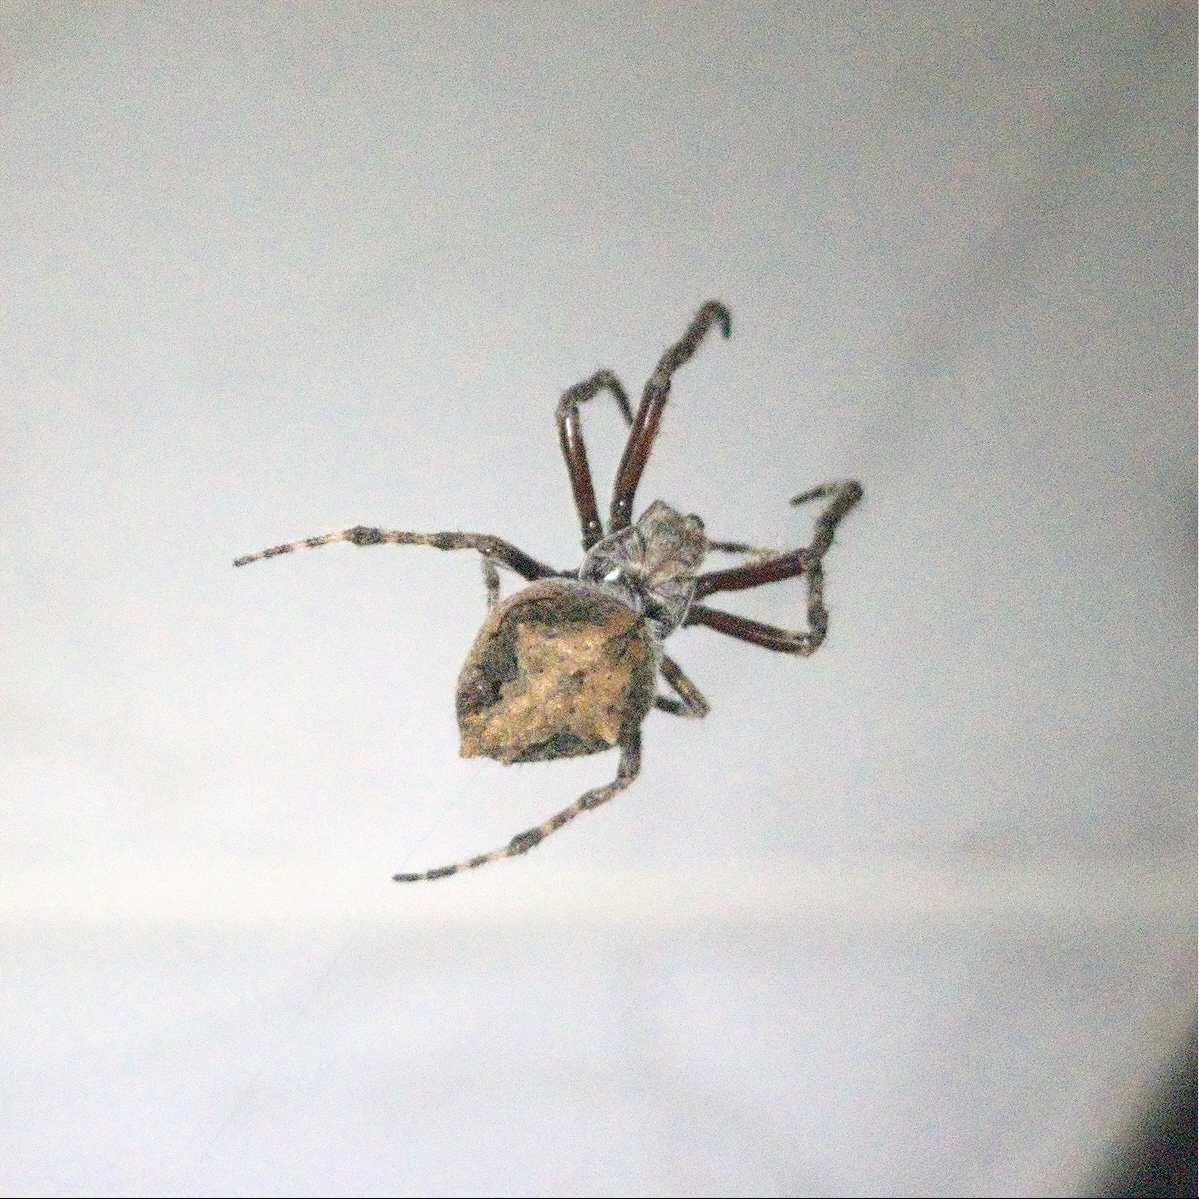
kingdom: Animalia
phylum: Arthropoda
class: Arachnida
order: Araneae
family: Araneidae
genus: Eriophora
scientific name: Eriophora pustulosa
